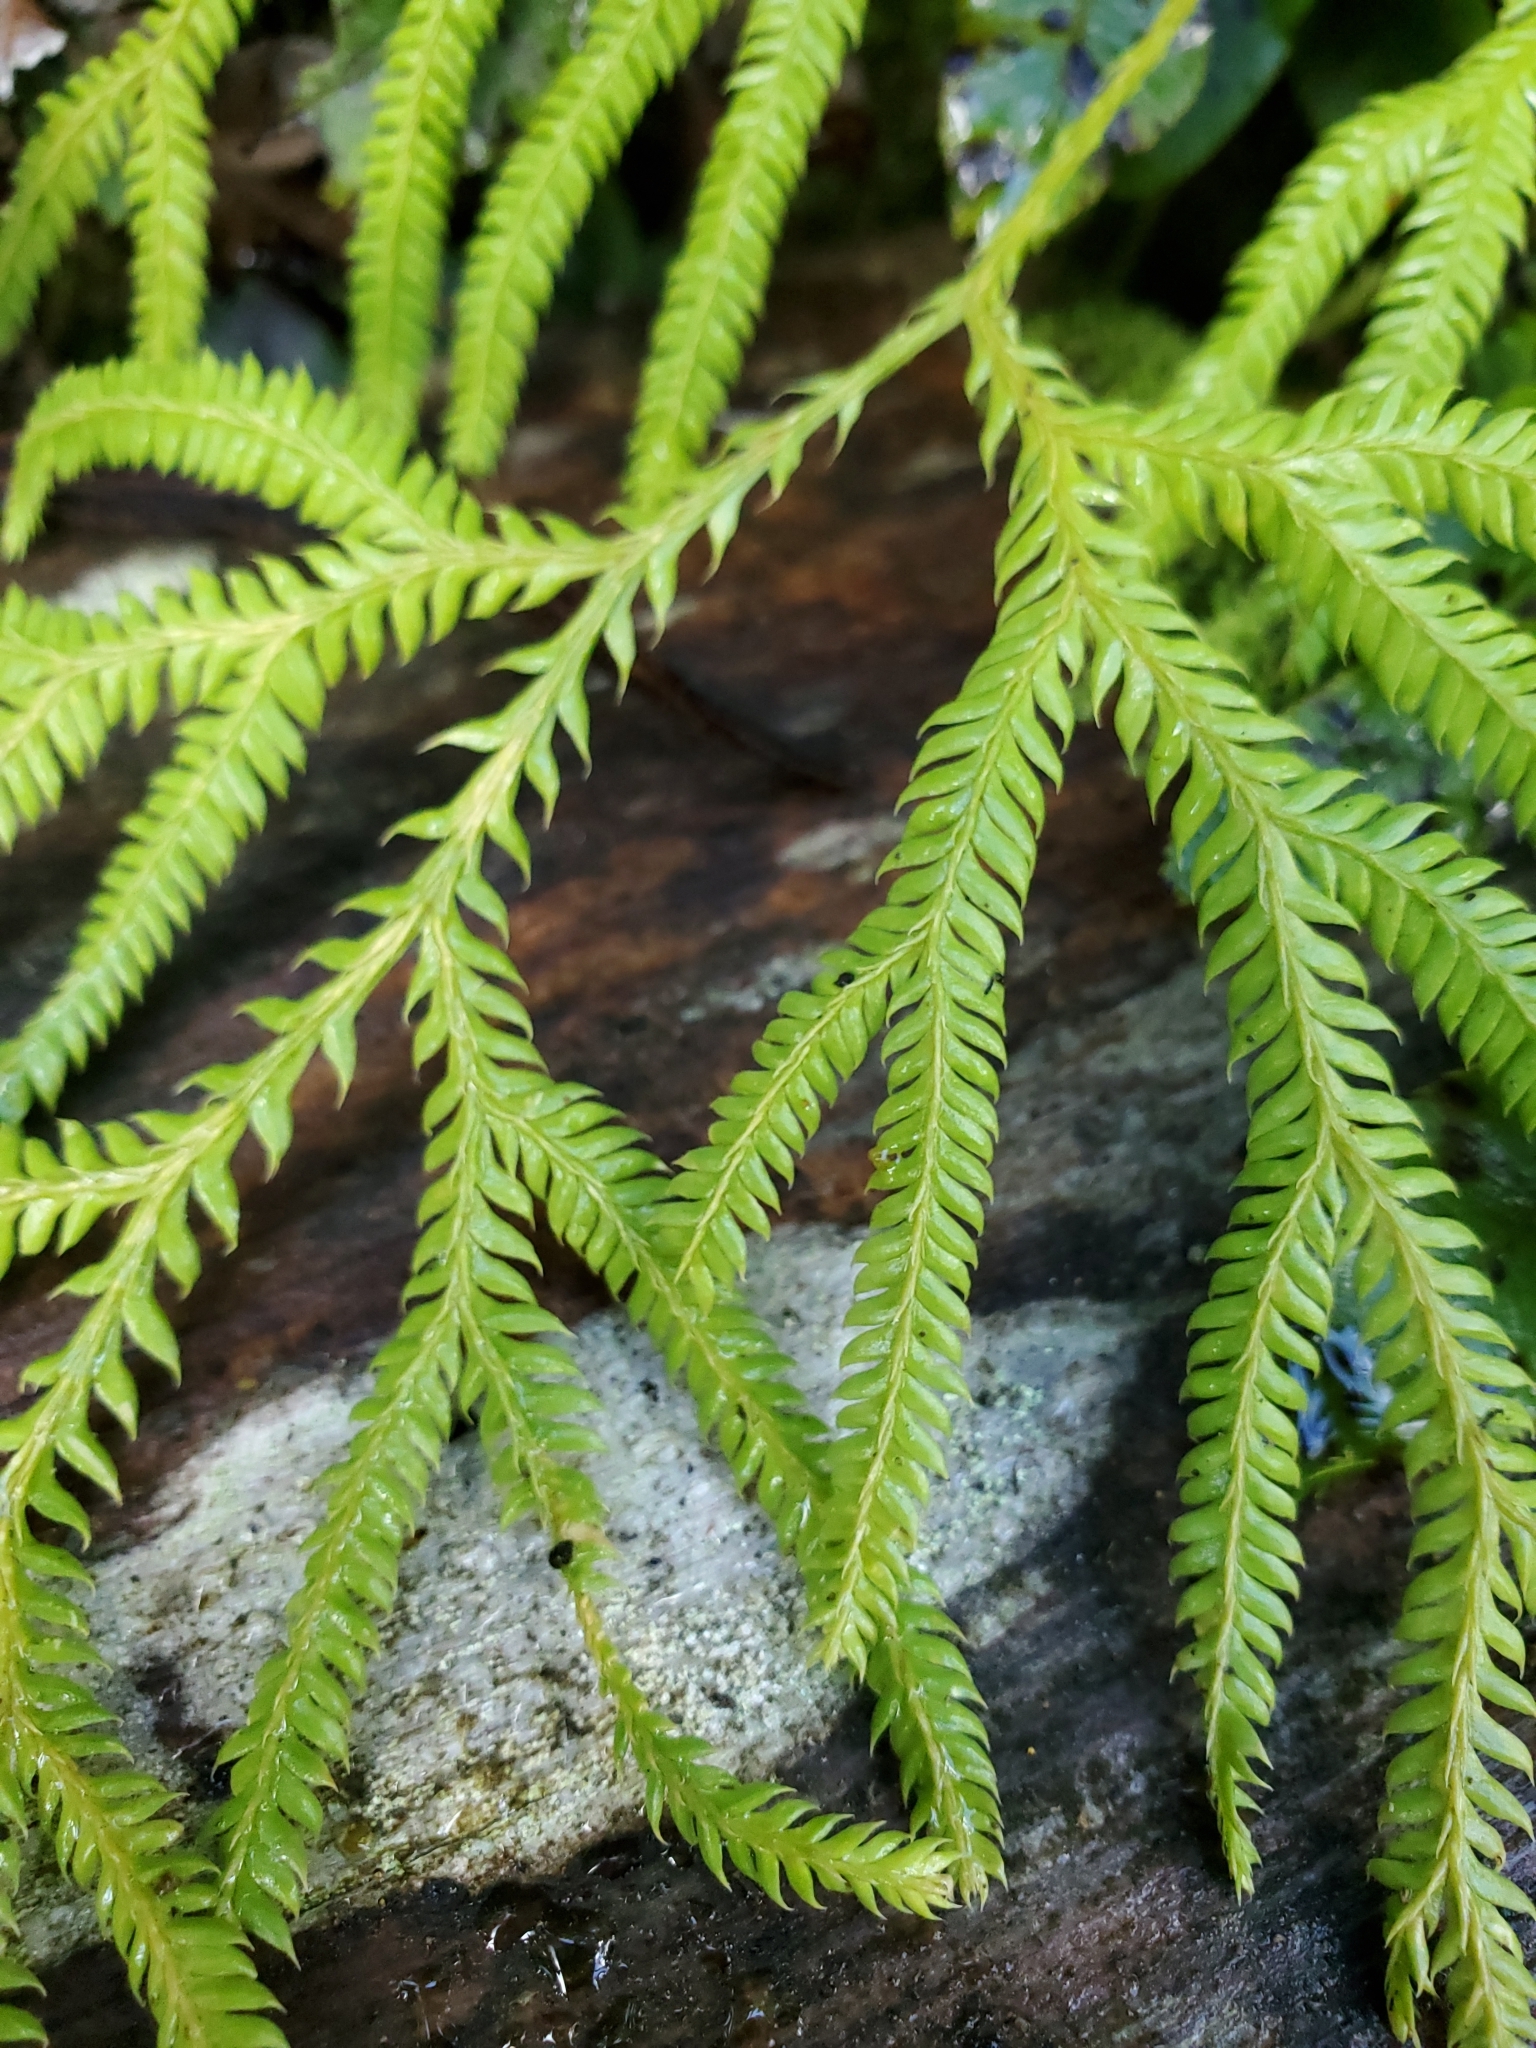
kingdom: Plantae
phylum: Tracheophyta
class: Lycopodiopsida
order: Lycopodiales
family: Lycopodiaceae
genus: Lycopodium
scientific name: Lycopodium volubile
